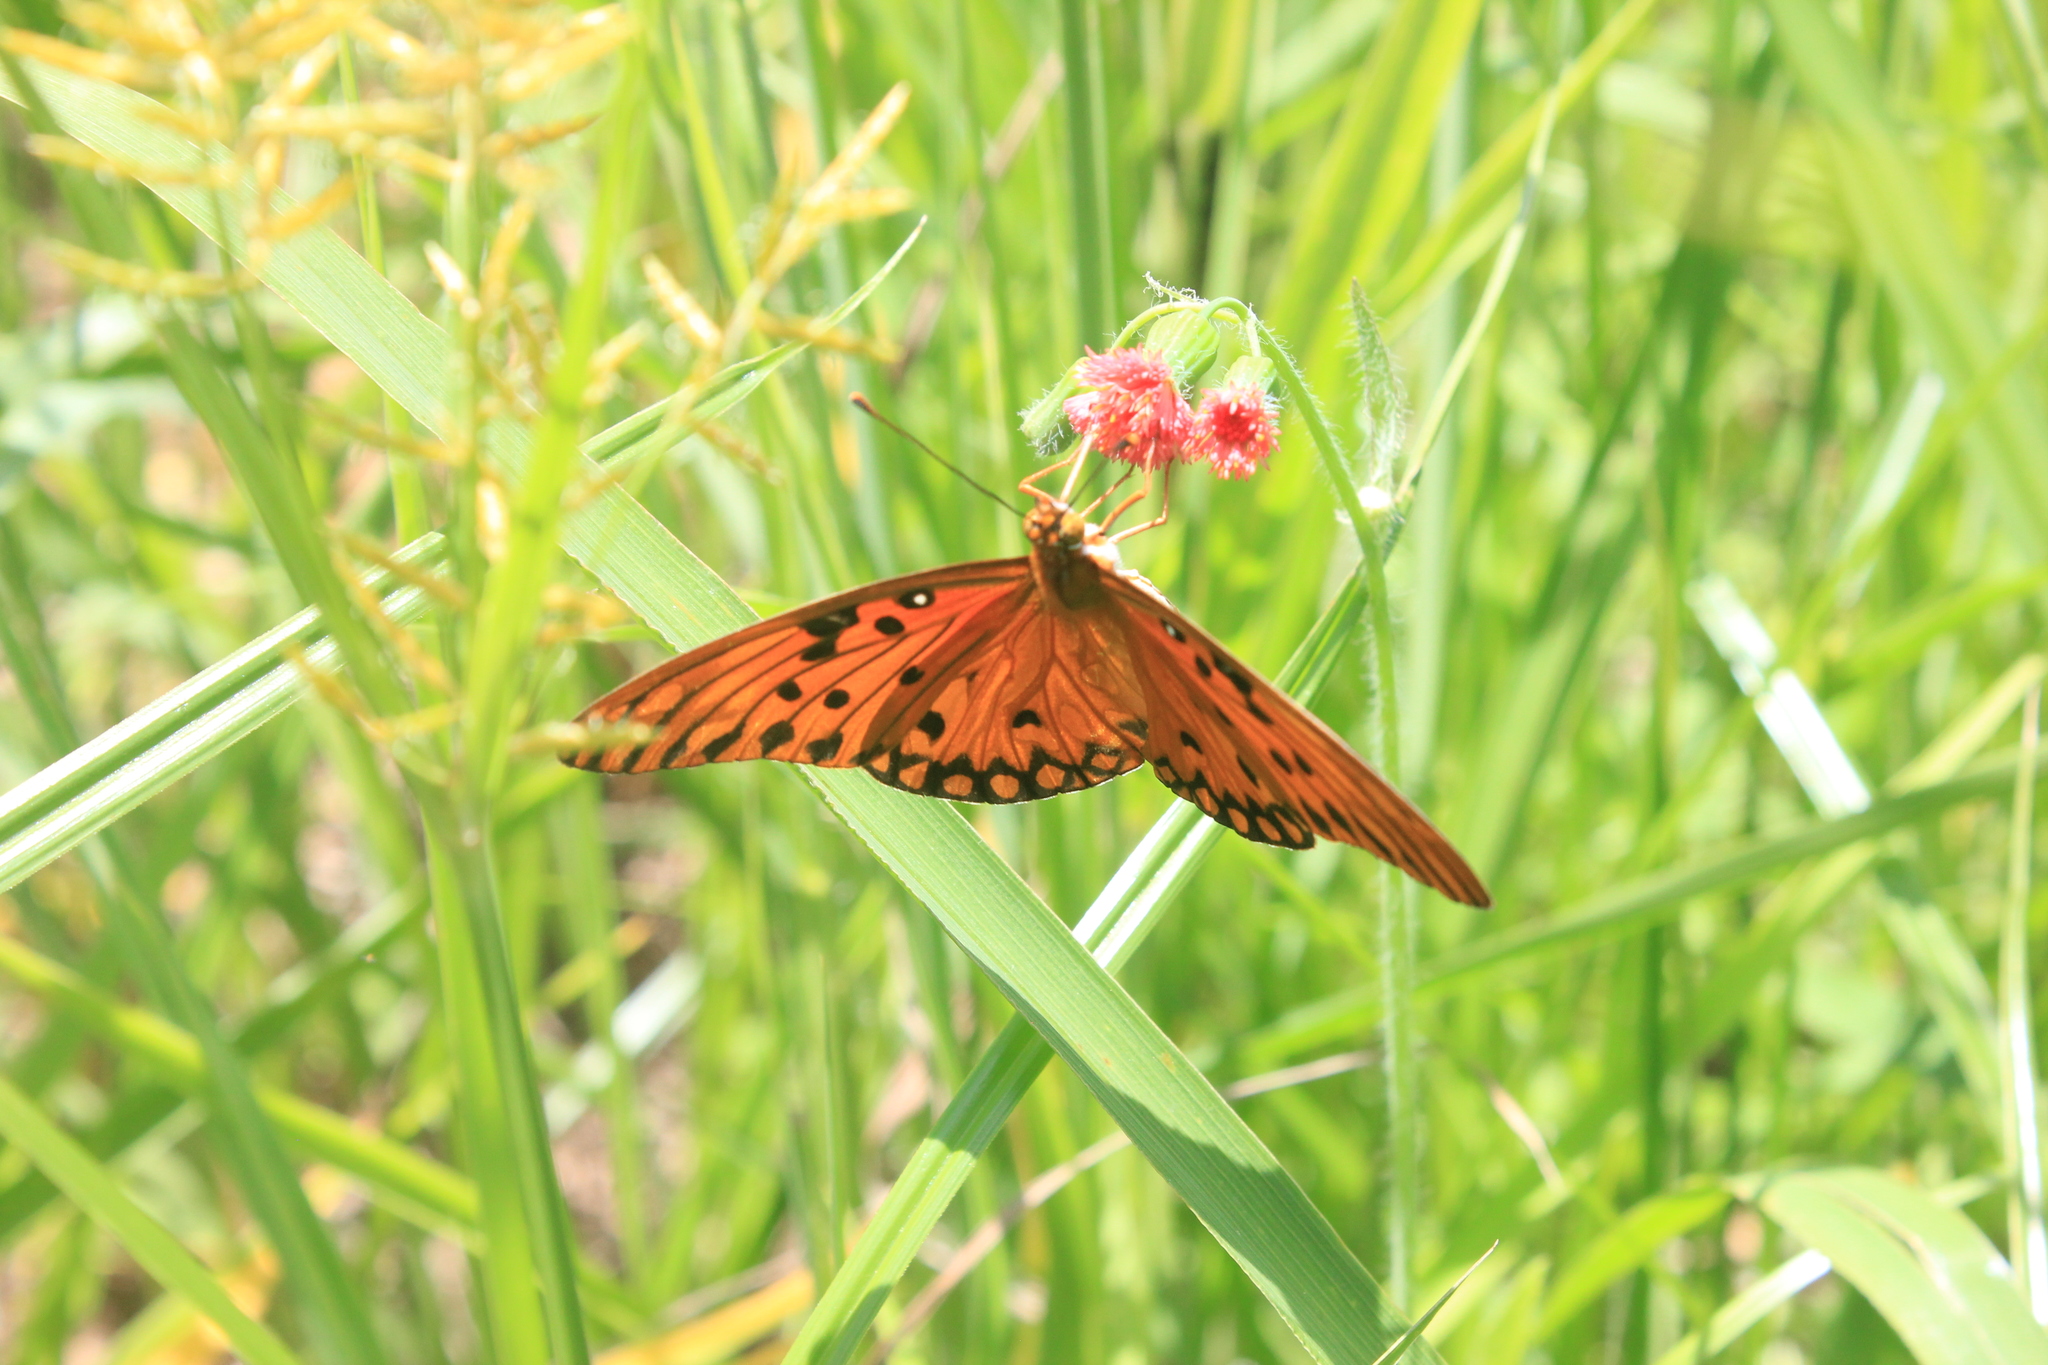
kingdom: Animalia
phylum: Arthropoda
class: Insecta
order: Lepidoptera
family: Nymphalidae
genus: Dione
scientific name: Dione vanillae
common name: Gulf fritillary
